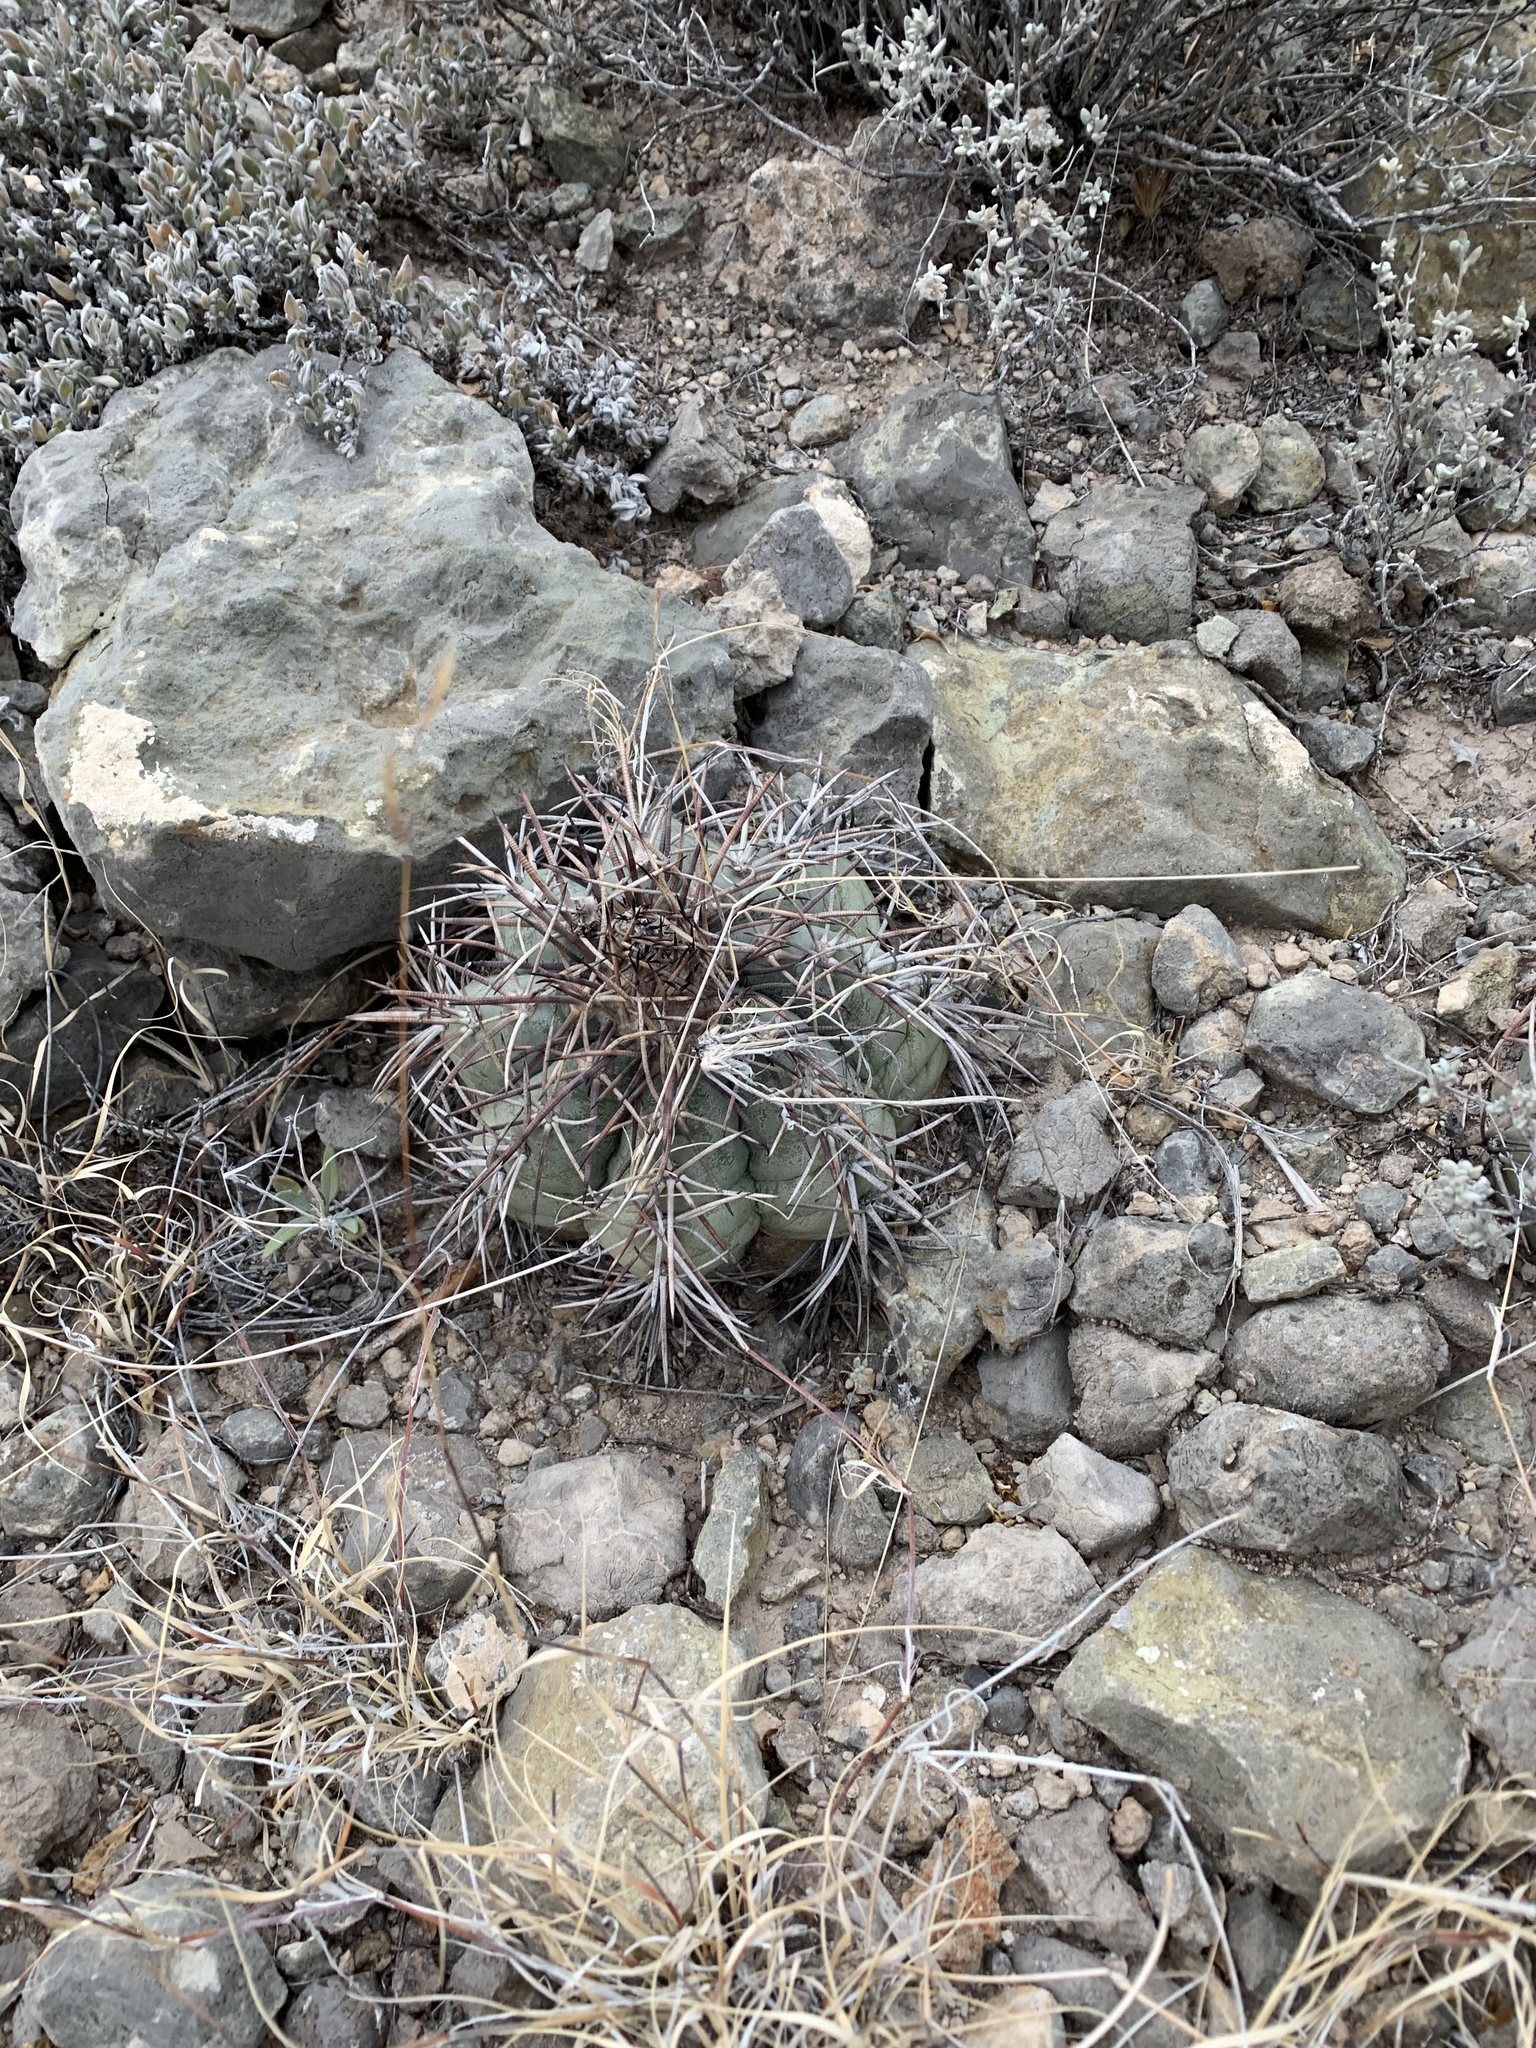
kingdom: Plantae
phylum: Tracheophyta
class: Magnoliopsida
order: Caryophyllales
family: Cactaceae
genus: Echinocactus
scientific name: Echinocactus horizonthalonius
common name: Devilshead
